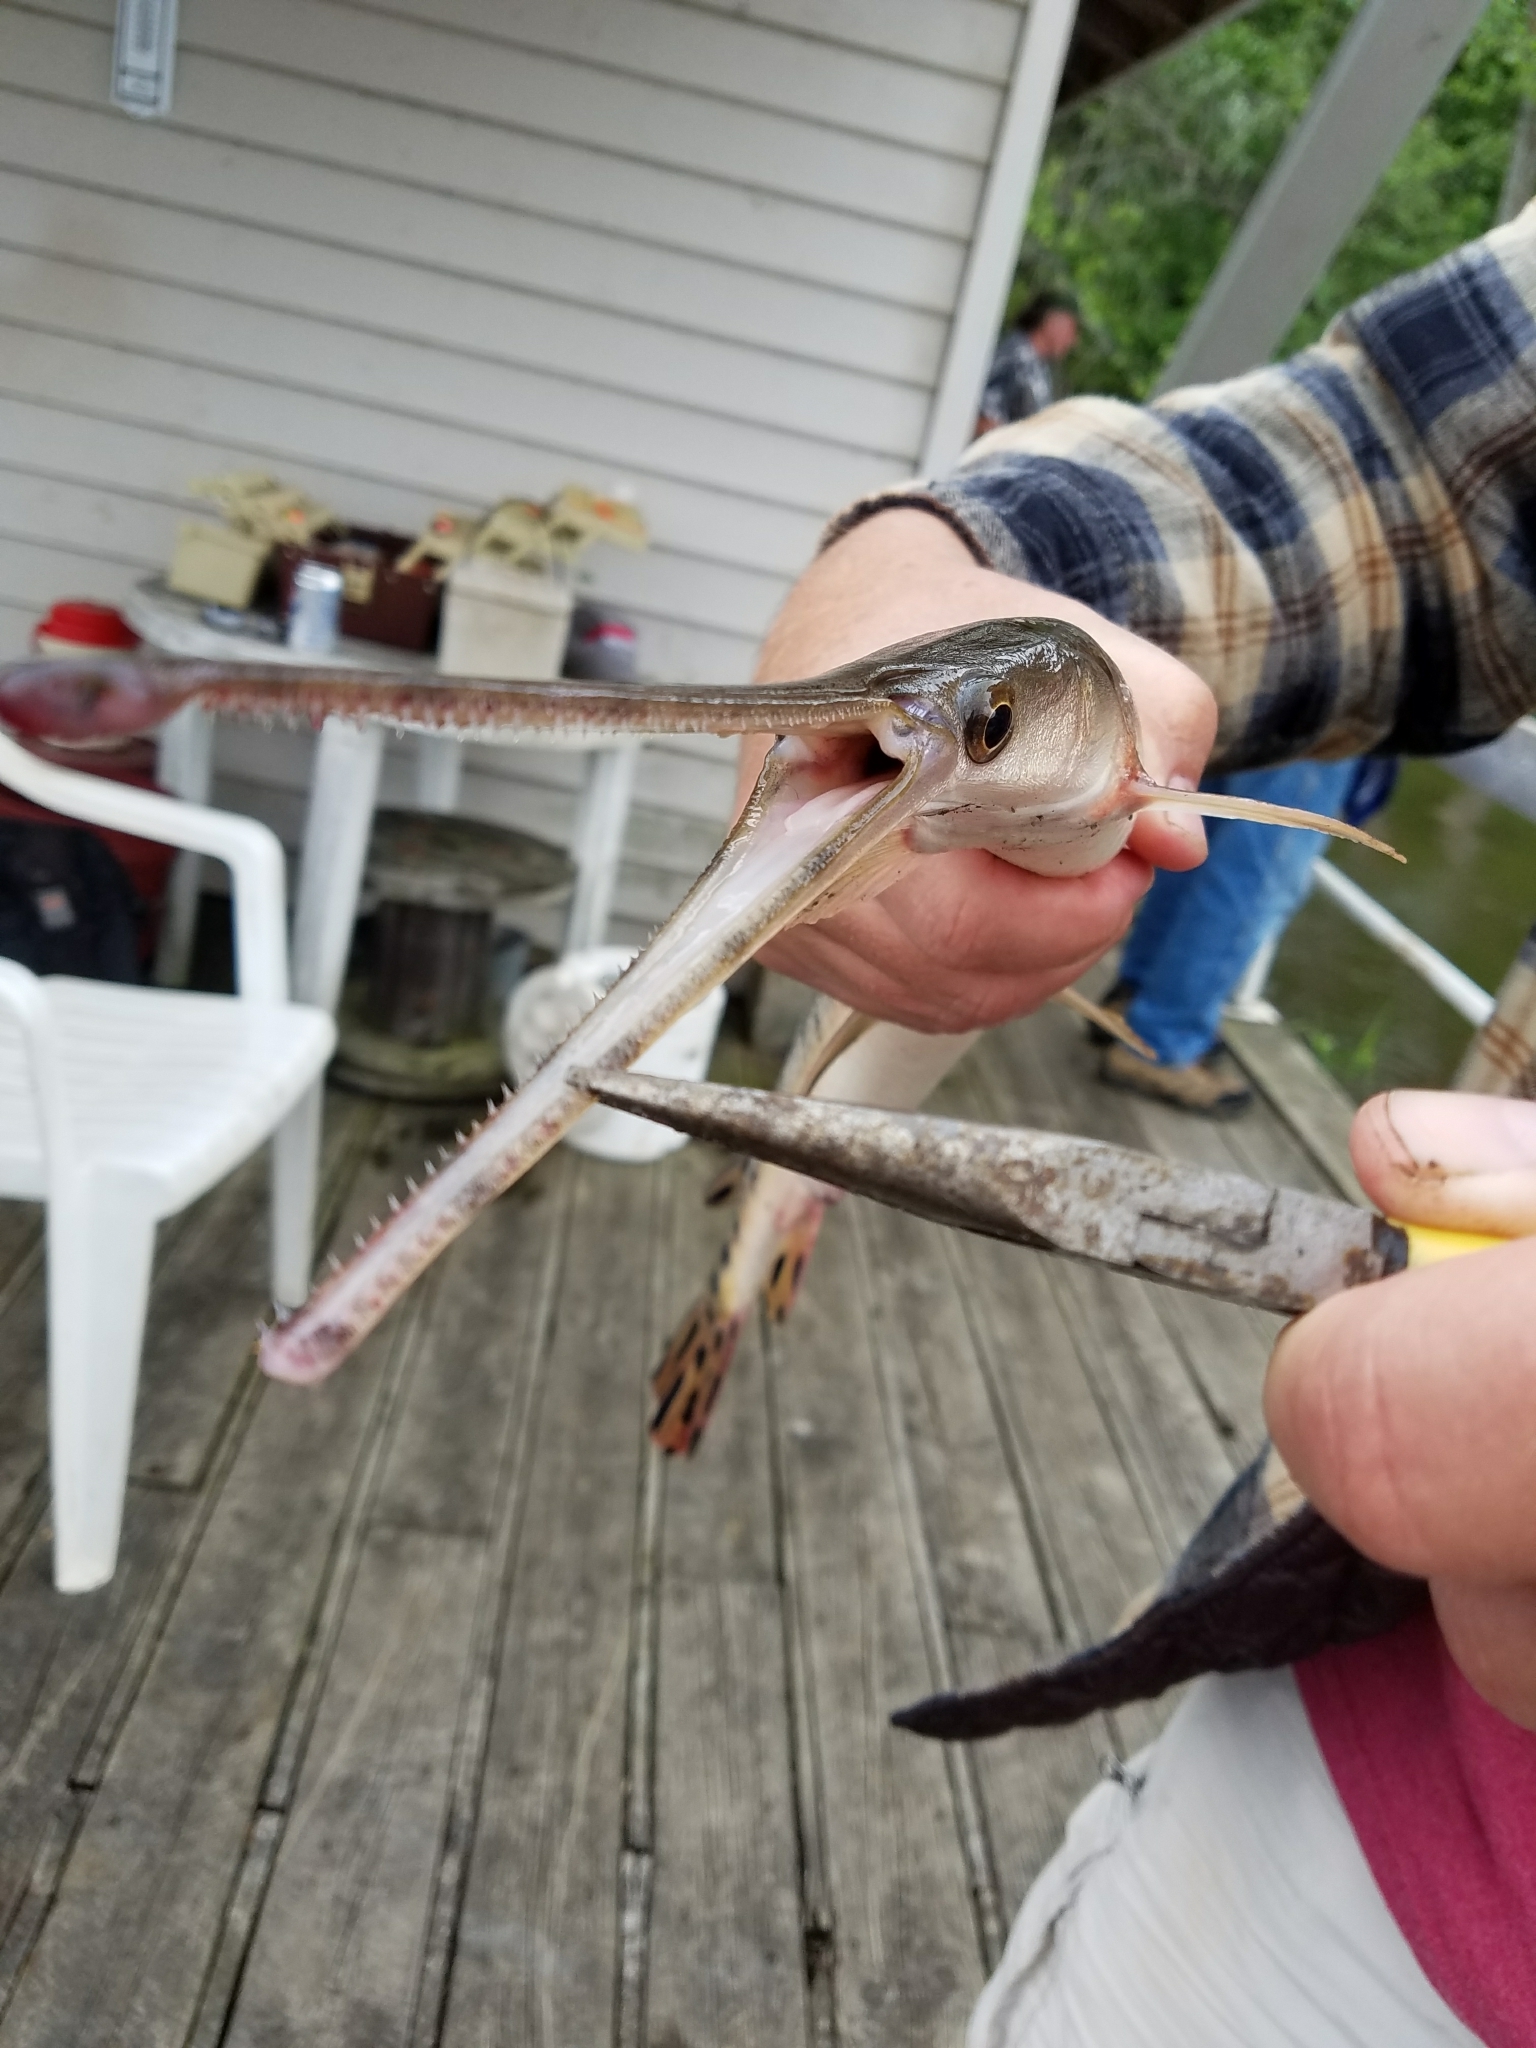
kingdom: Animalia
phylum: Chordata
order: Lepisosteiformes
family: Lepisosteidae
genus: Lepisosteus
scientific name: Lepisosteus osseus
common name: Longnose gar
